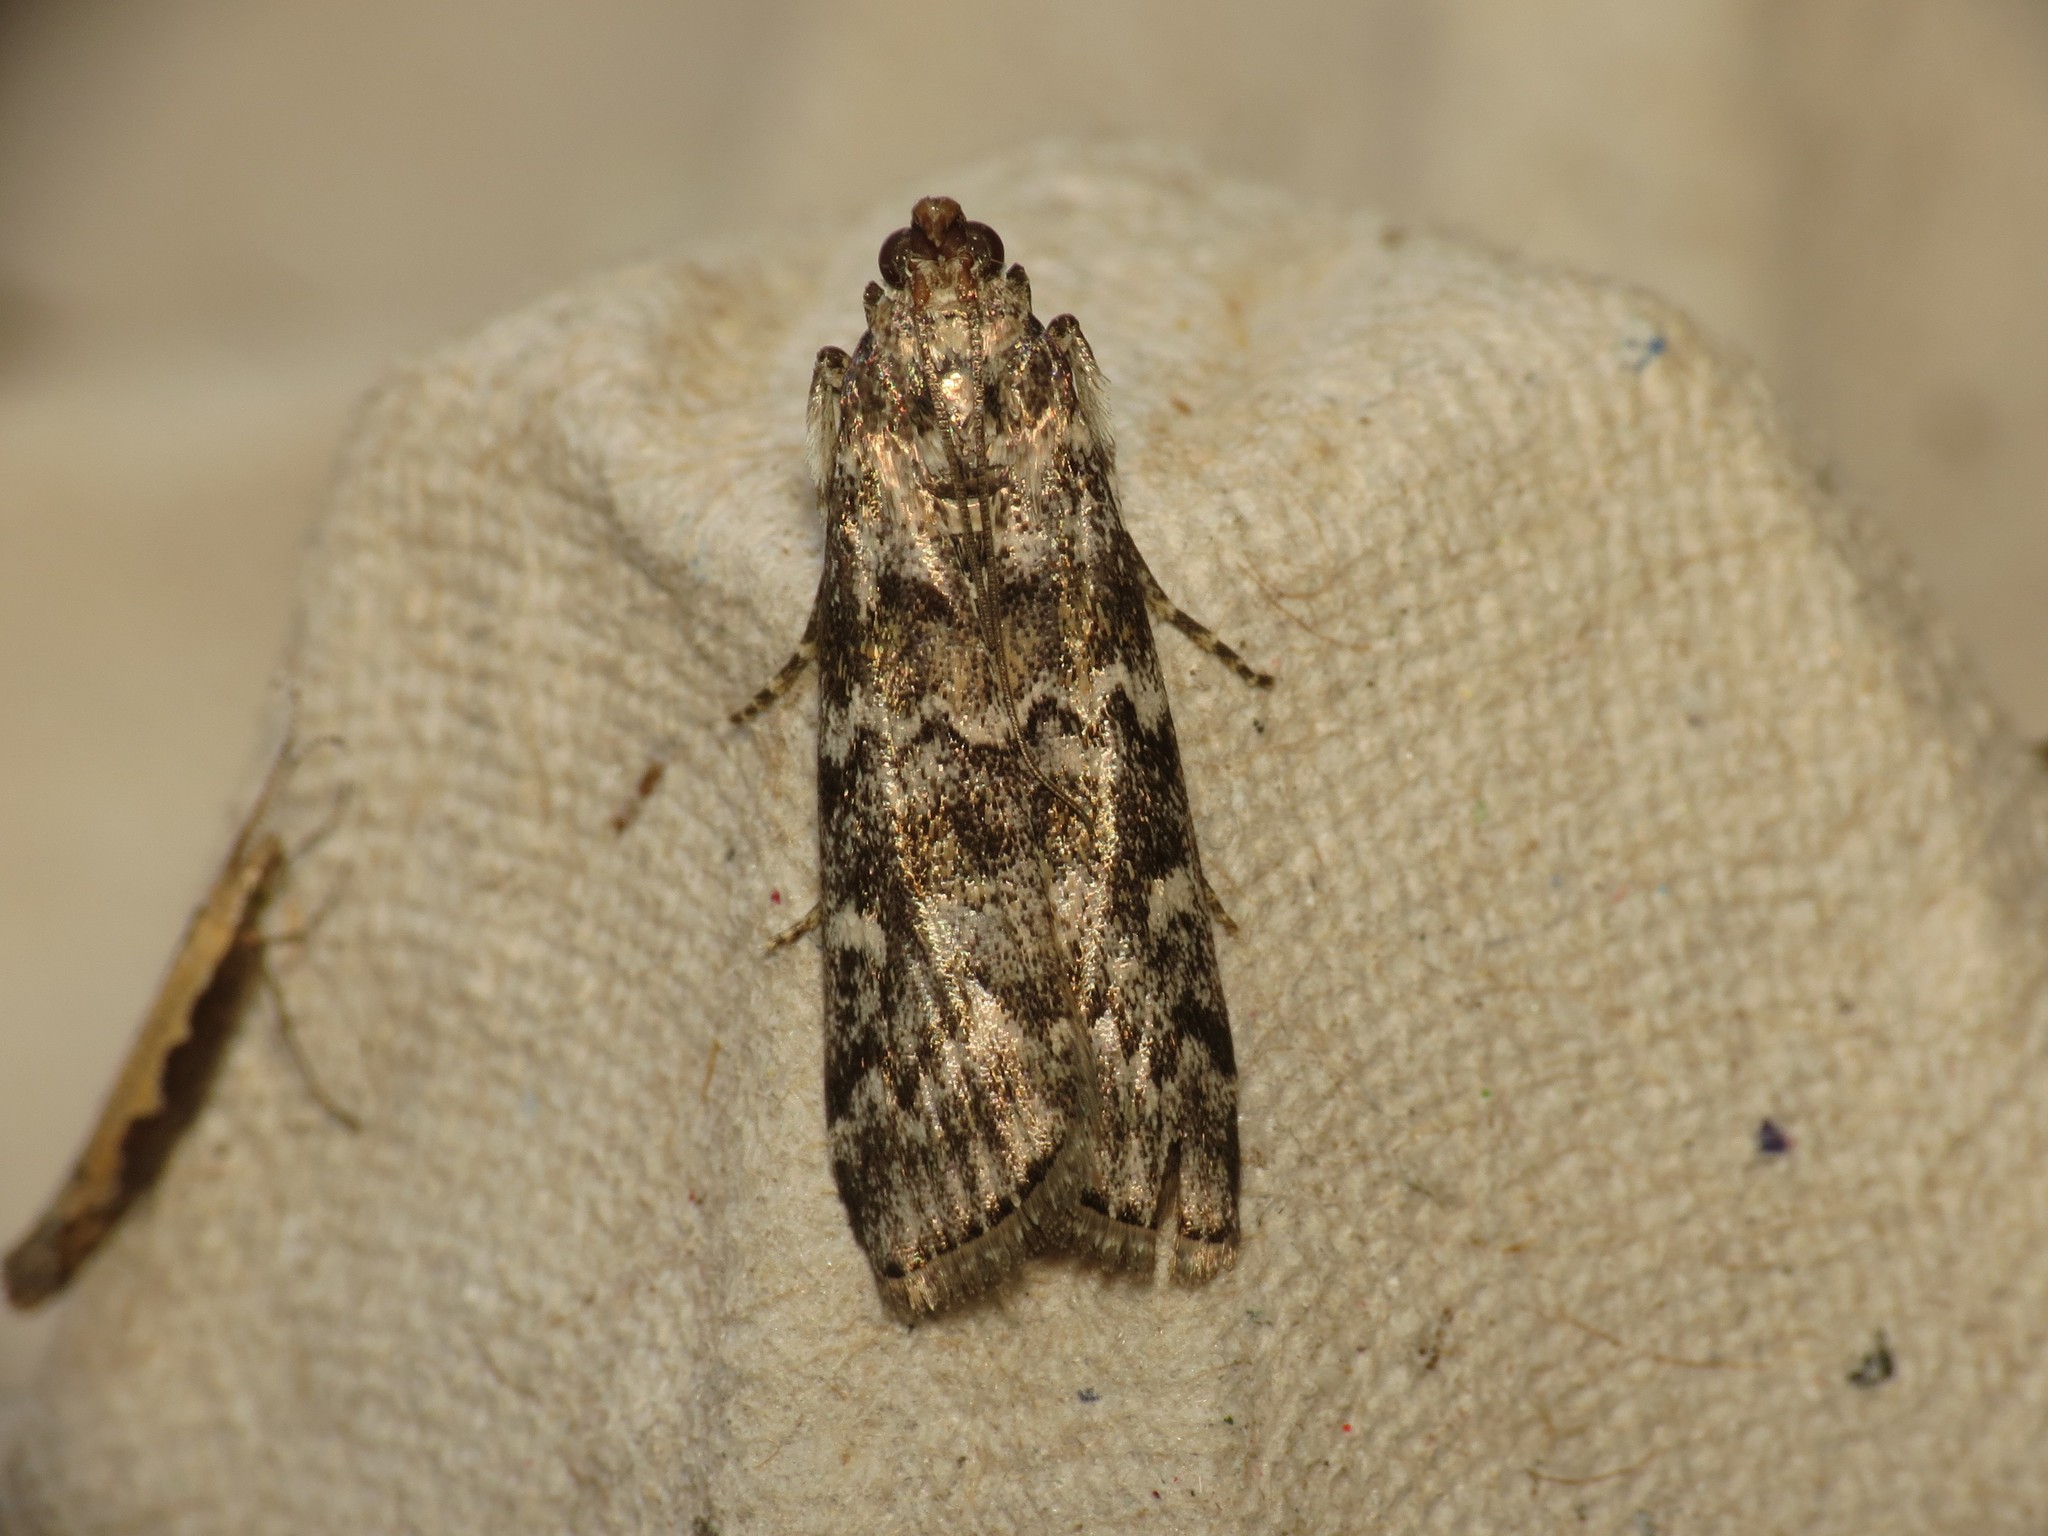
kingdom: Animalia
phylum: Arthropoda
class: Insecta
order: Lepidoptera
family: Pyralidae
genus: Dioryctria
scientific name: Dioryctria abietella
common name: Dark pine knot-horn
